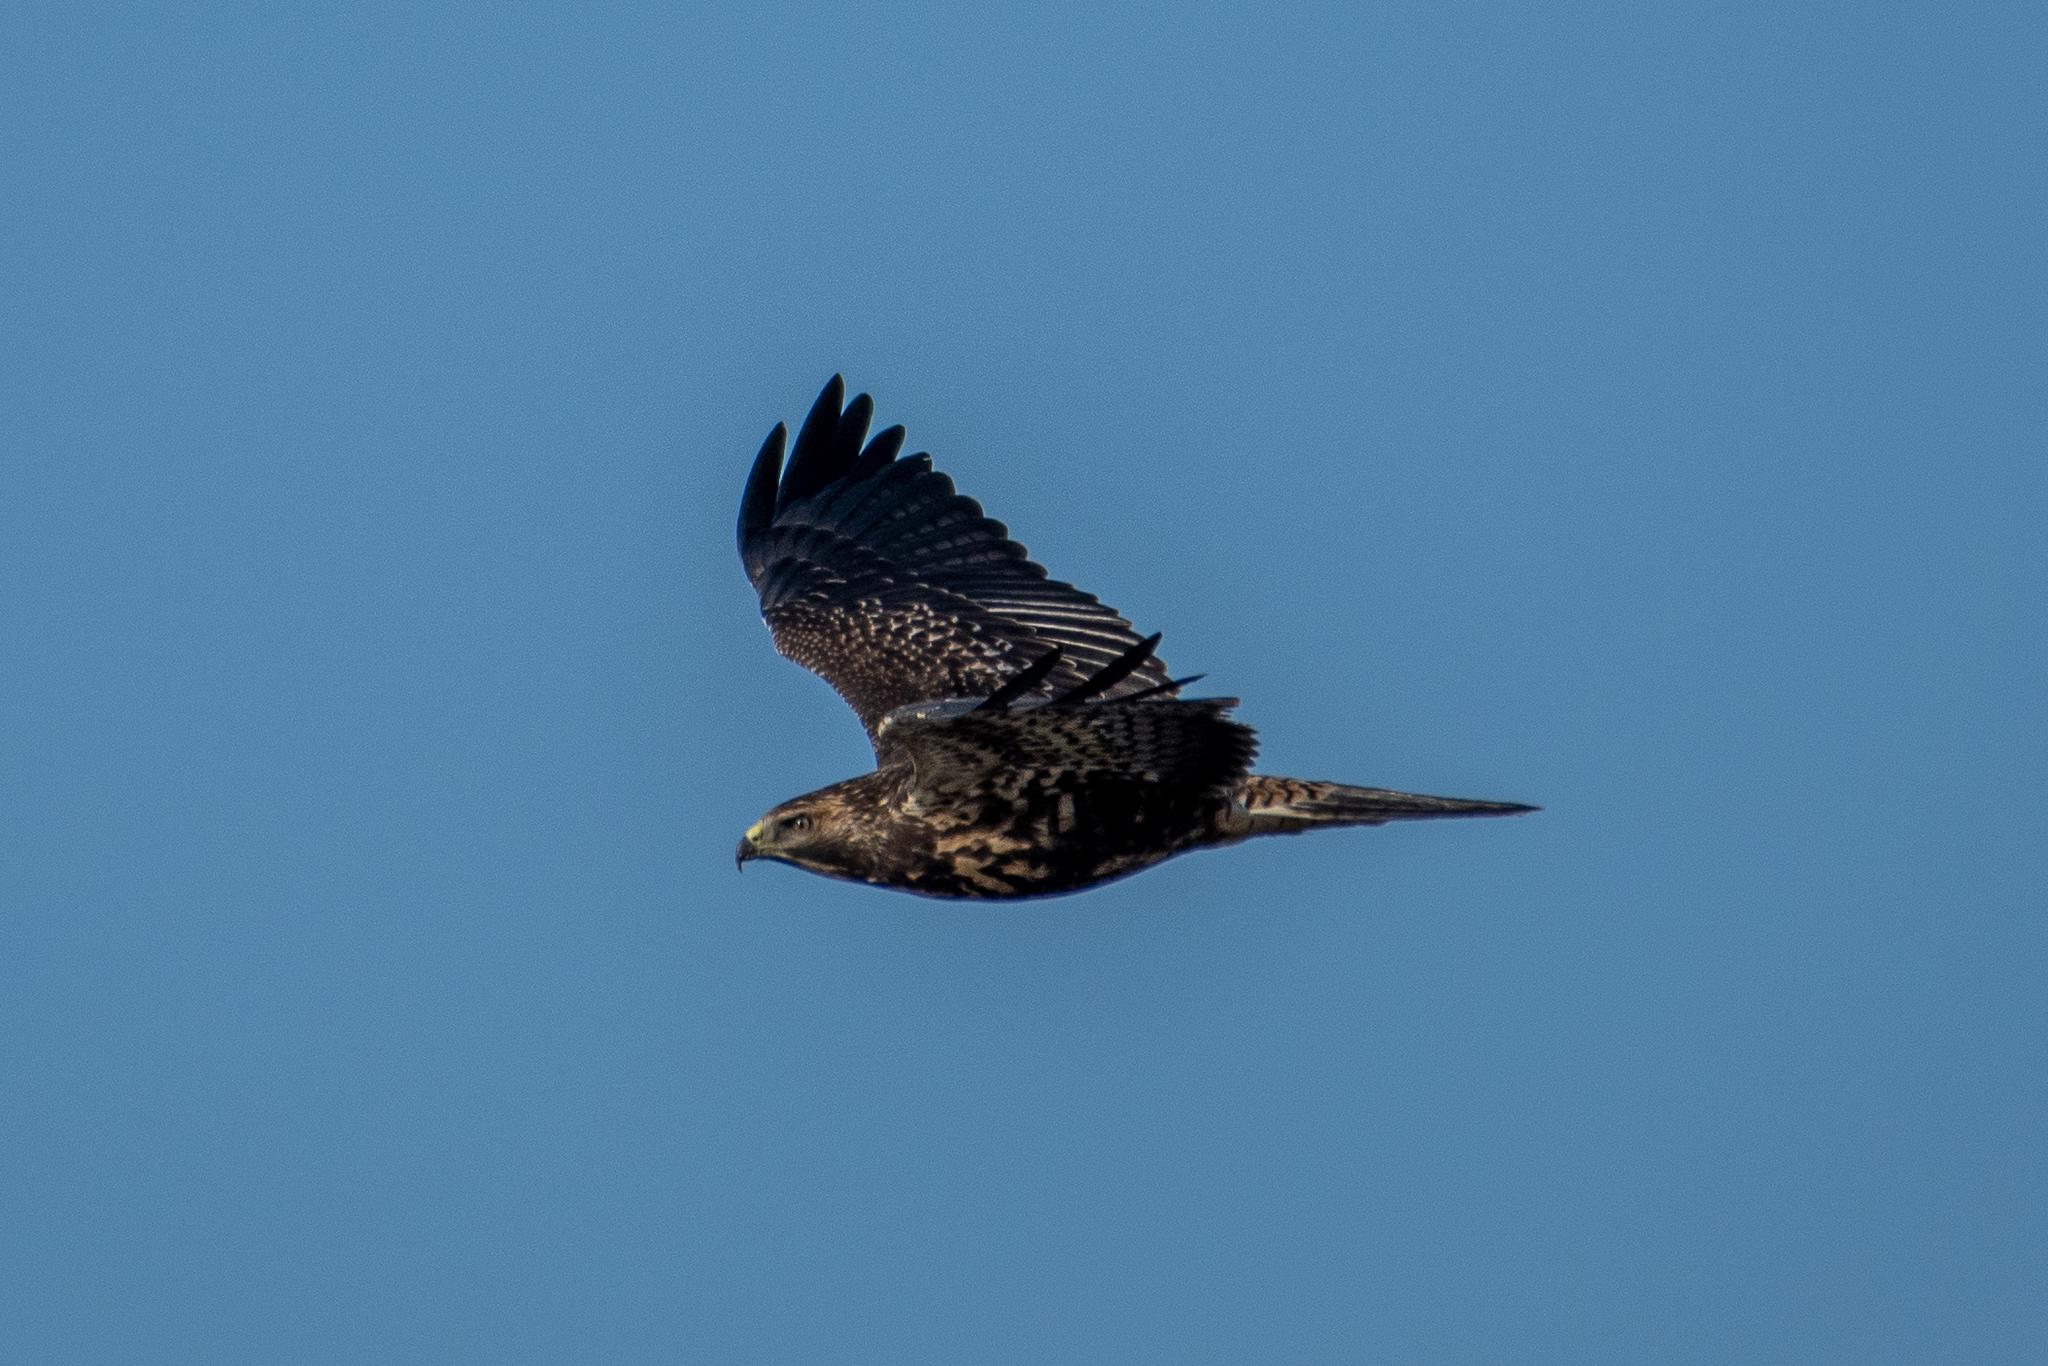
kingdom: Animalia
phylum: Chordata
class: Aves
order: Accipitriformes
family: Accipitridae
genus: Buteo
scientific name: Buteo swainsoni
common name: Swainson's hawk
